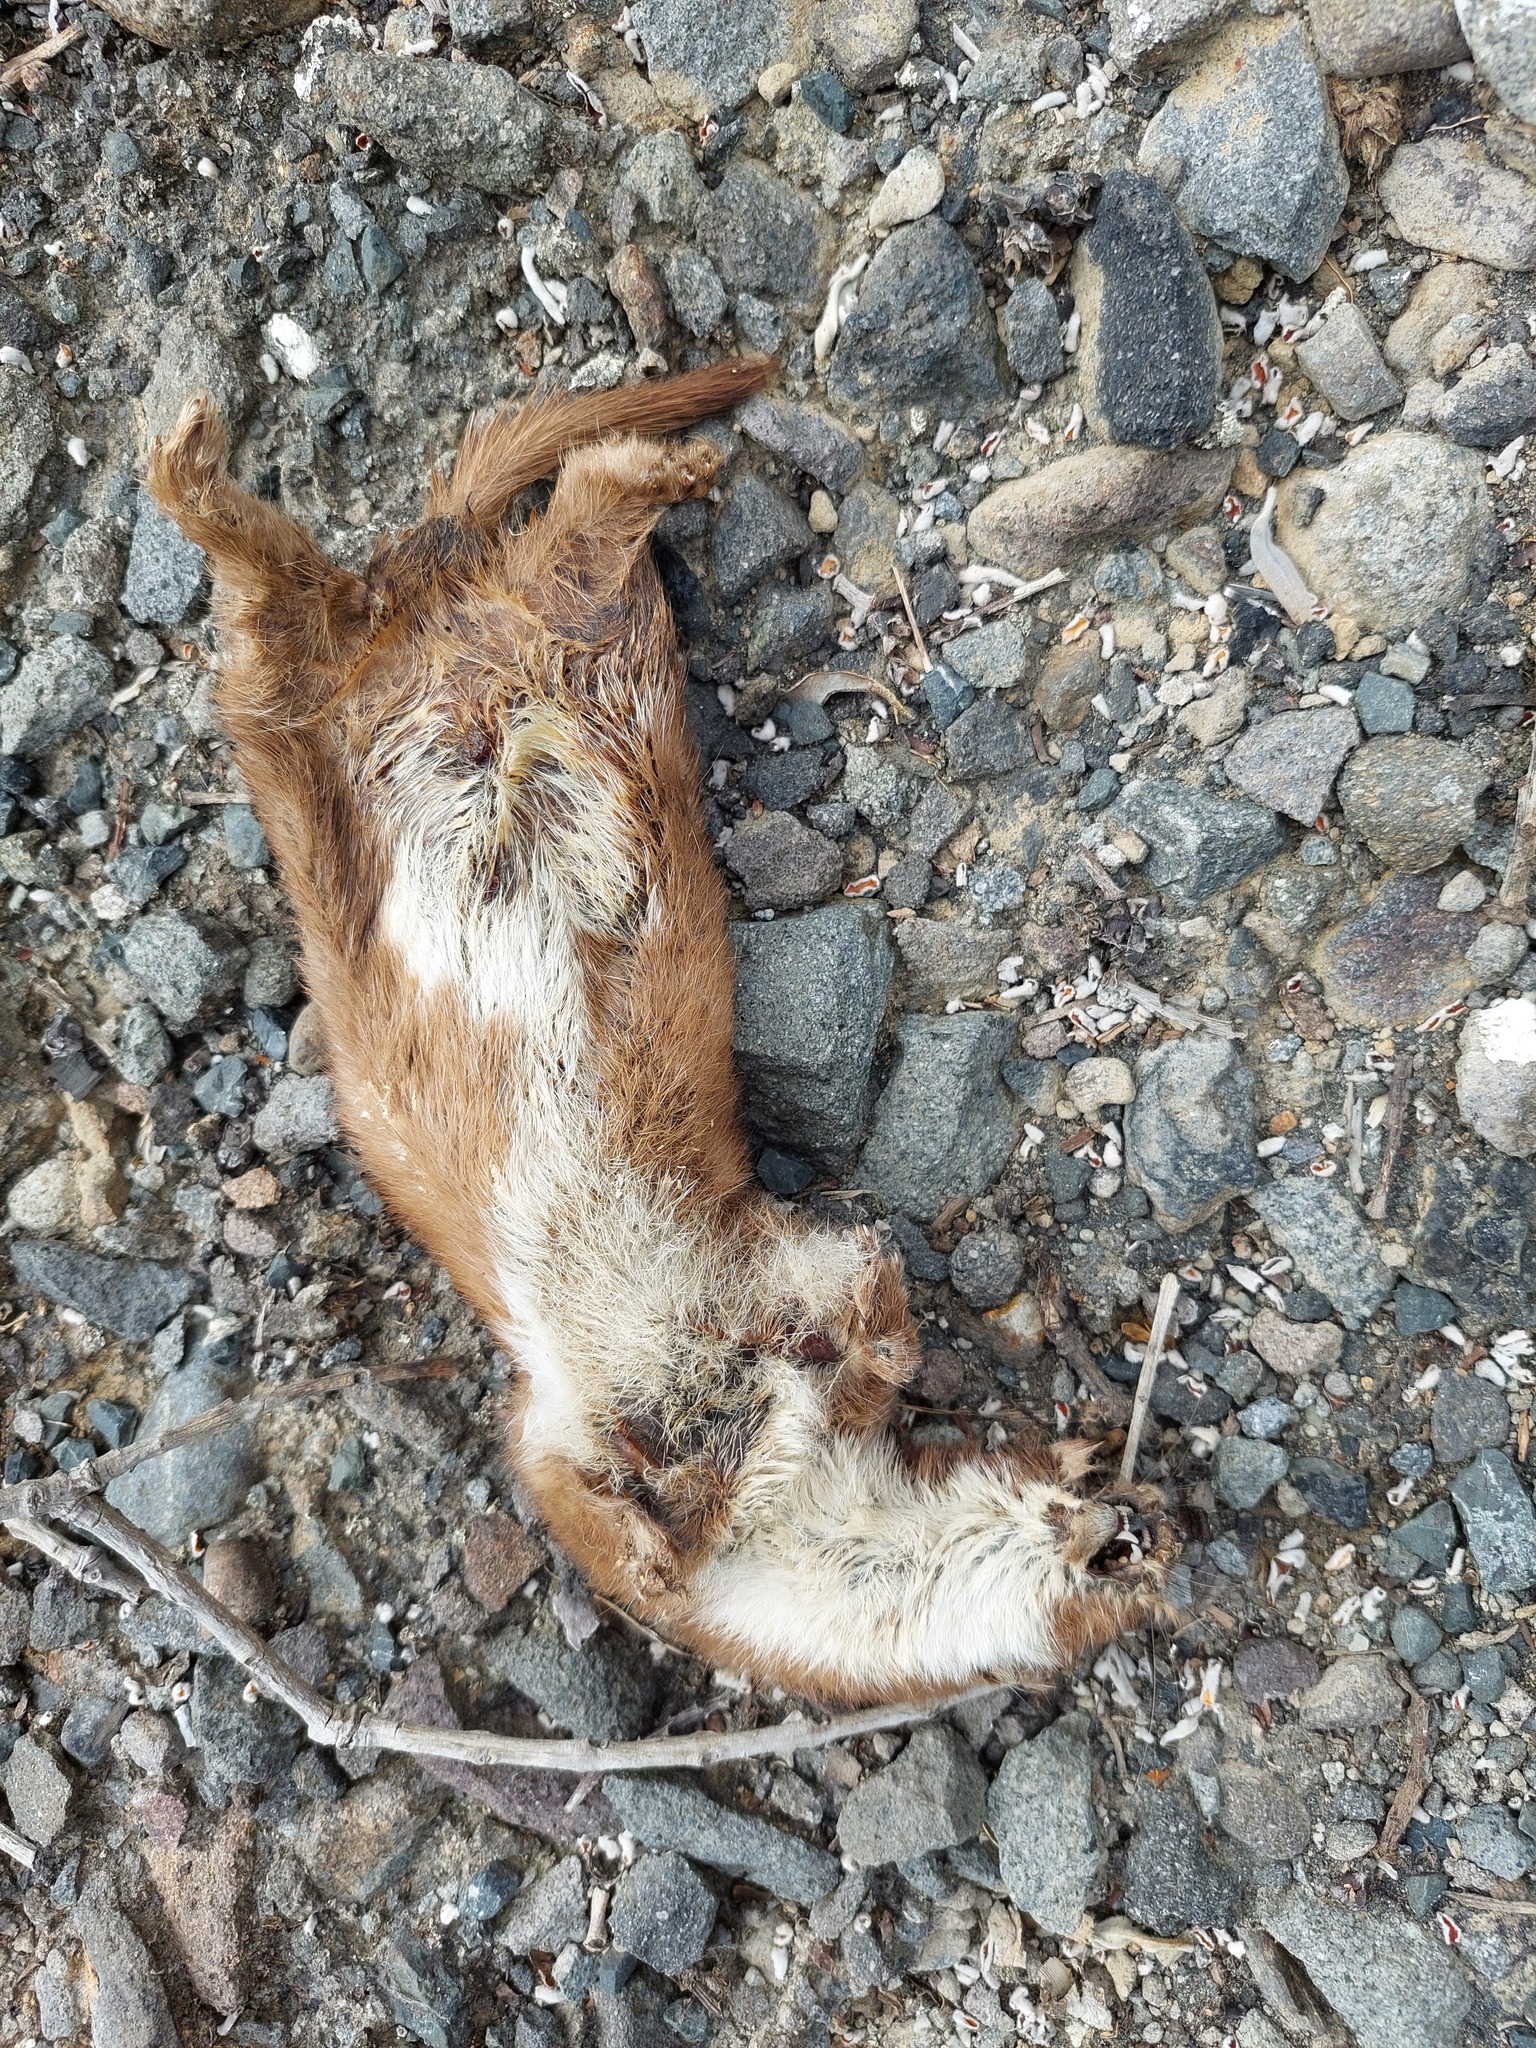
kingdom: Animalia
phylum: Chordata
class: Mammalia
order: Carnivora
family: Mustelidae
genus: Mustela
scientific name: Mustela nivalis
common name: Least weasel
